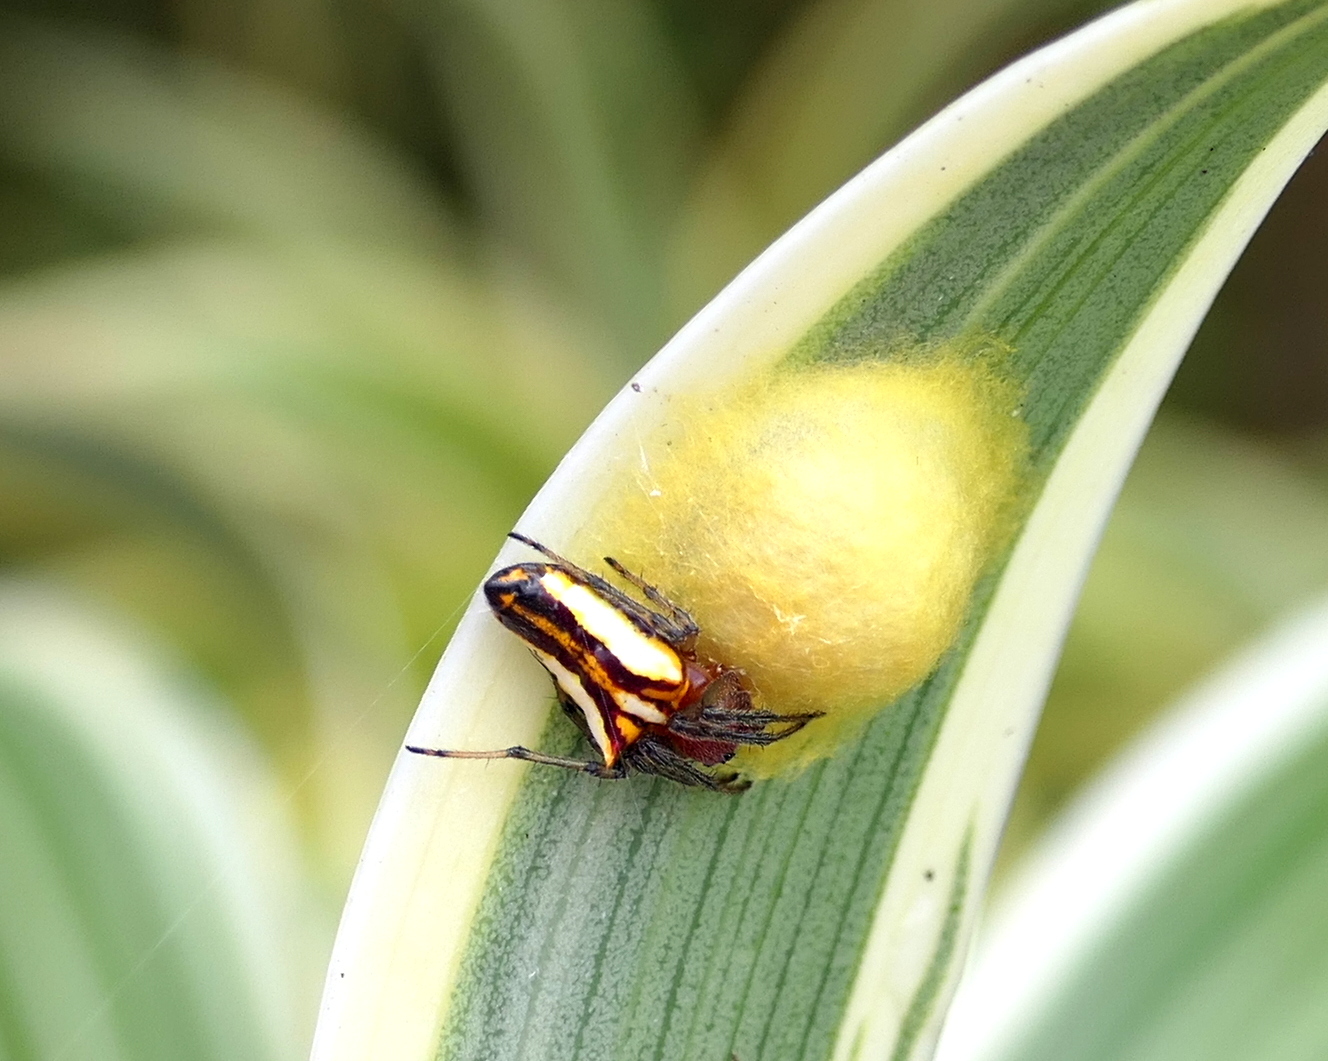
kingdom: Animalia
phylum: Arthropoda
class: Arachnida
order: Araneae
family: Araneidae
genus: Alpaida
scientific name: Alpaida bicornuta
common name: Orb weavers
